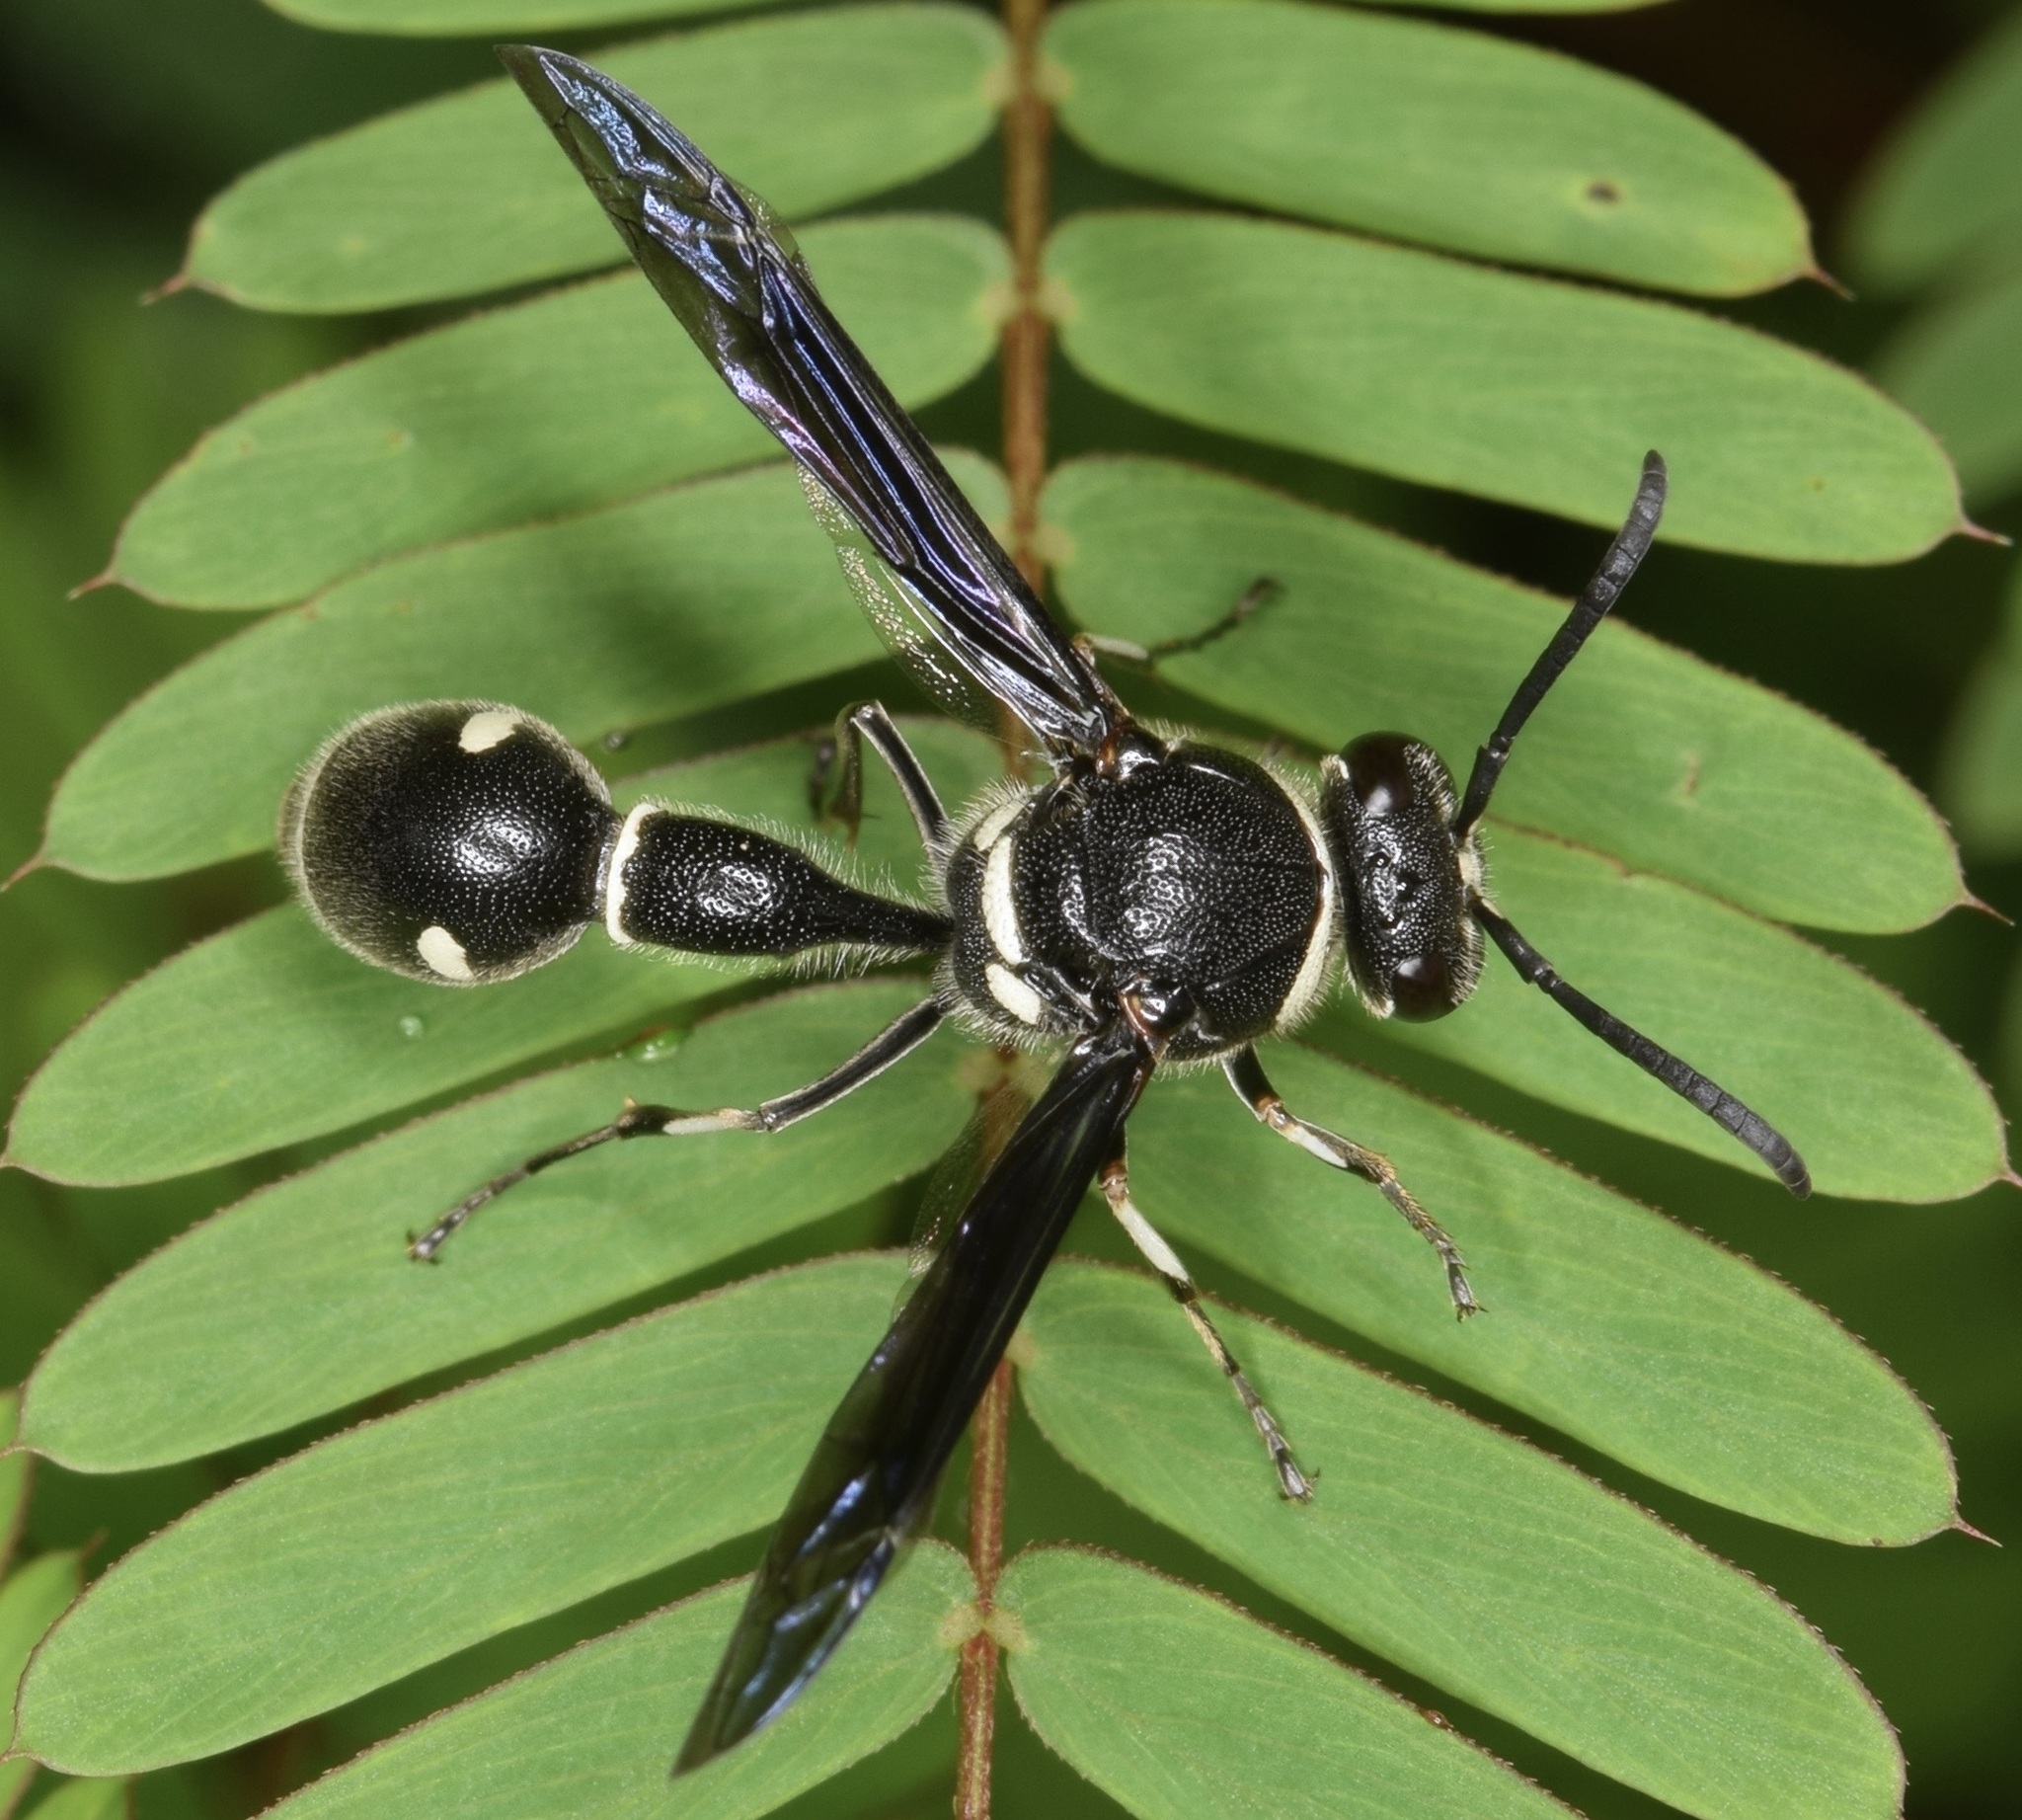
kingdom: Animalia
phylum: Arthropoda
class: Insecta
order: Hymenoptera
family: Vespidae
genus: Eumenes
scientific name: Eumenes fraternus
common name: Fraternal potter wasp
